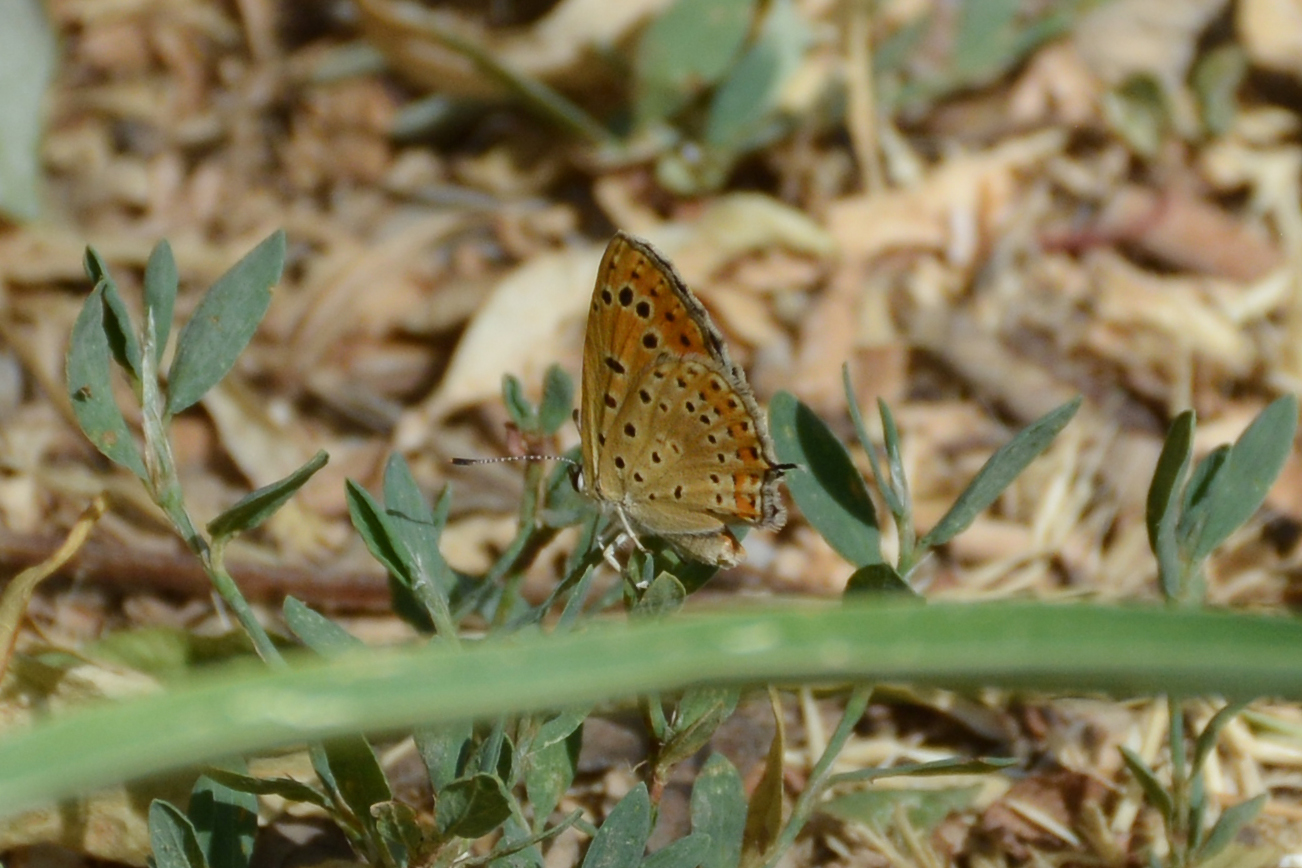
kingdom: Animalia
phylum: Arthropoda
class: Insecta
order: Lepidoptera
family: Lycaenidae
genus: Thersamonia
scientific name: Thersamonia thersamon
